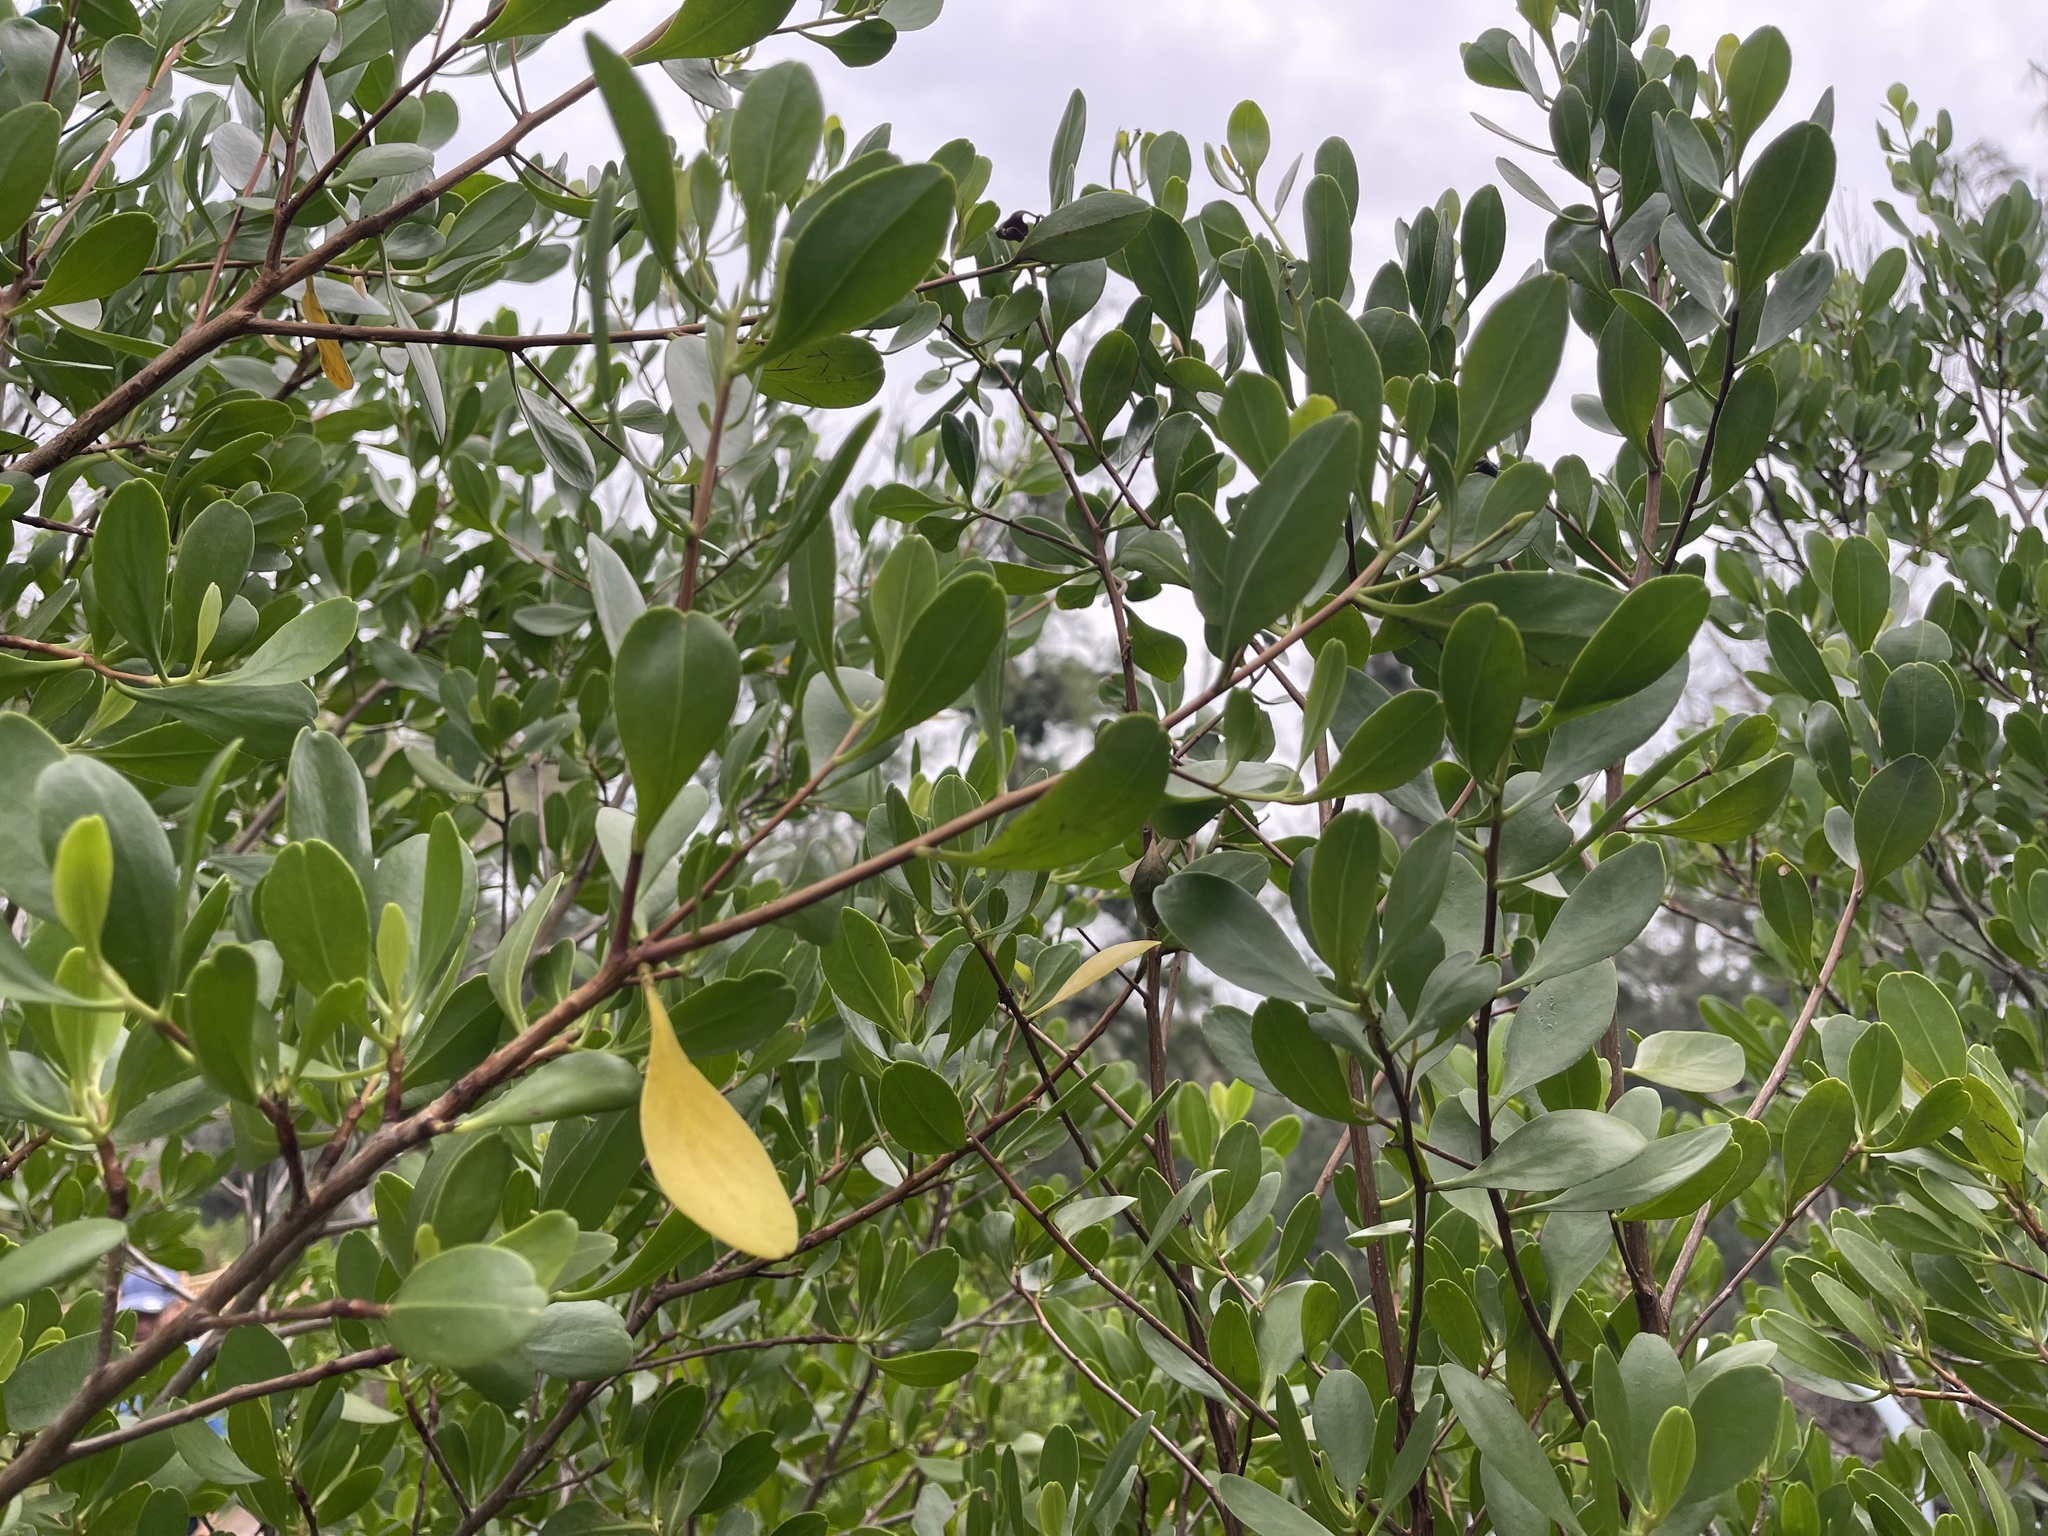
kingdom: Plantae
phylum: Tracheophyta
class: Magnoliopsida
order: Myrtales
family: Combretaceae
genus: Lumnitzera
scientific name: Lumnitzera racemosa
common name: White-flowered black mangrove
